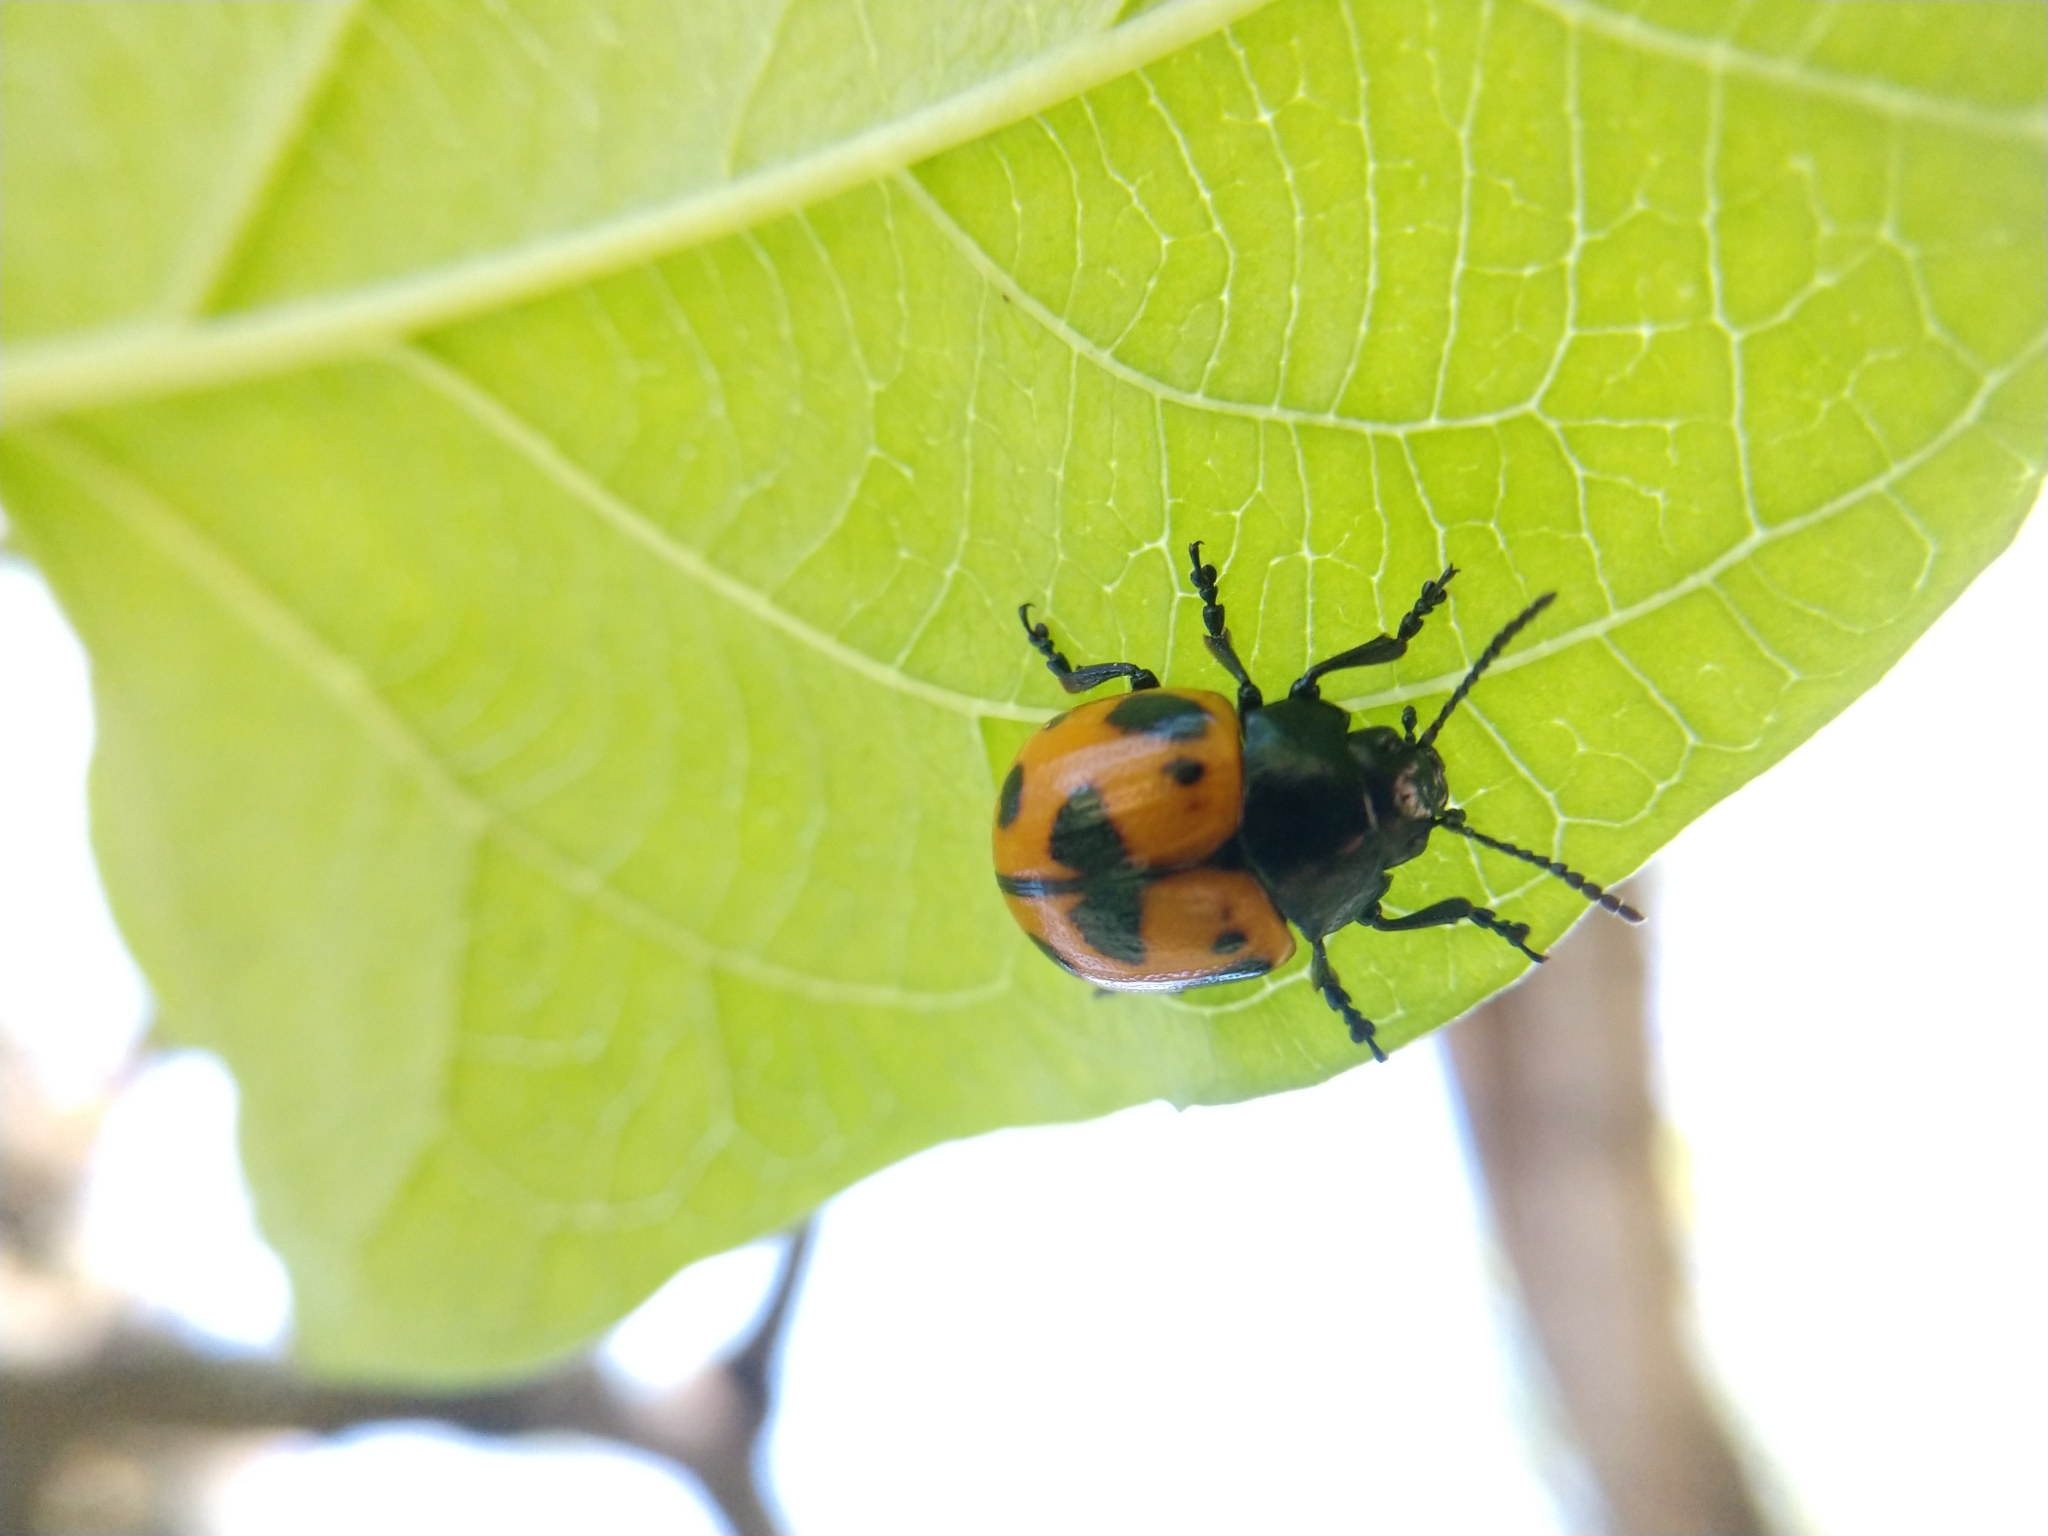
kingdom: Animalia
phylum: Arthropoda
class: Insecta
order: Coleoptera
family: Chrysomelidae
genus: Labidomera
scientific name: Labidomera clivicollis
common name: Swamp milkweed leaf beetle
